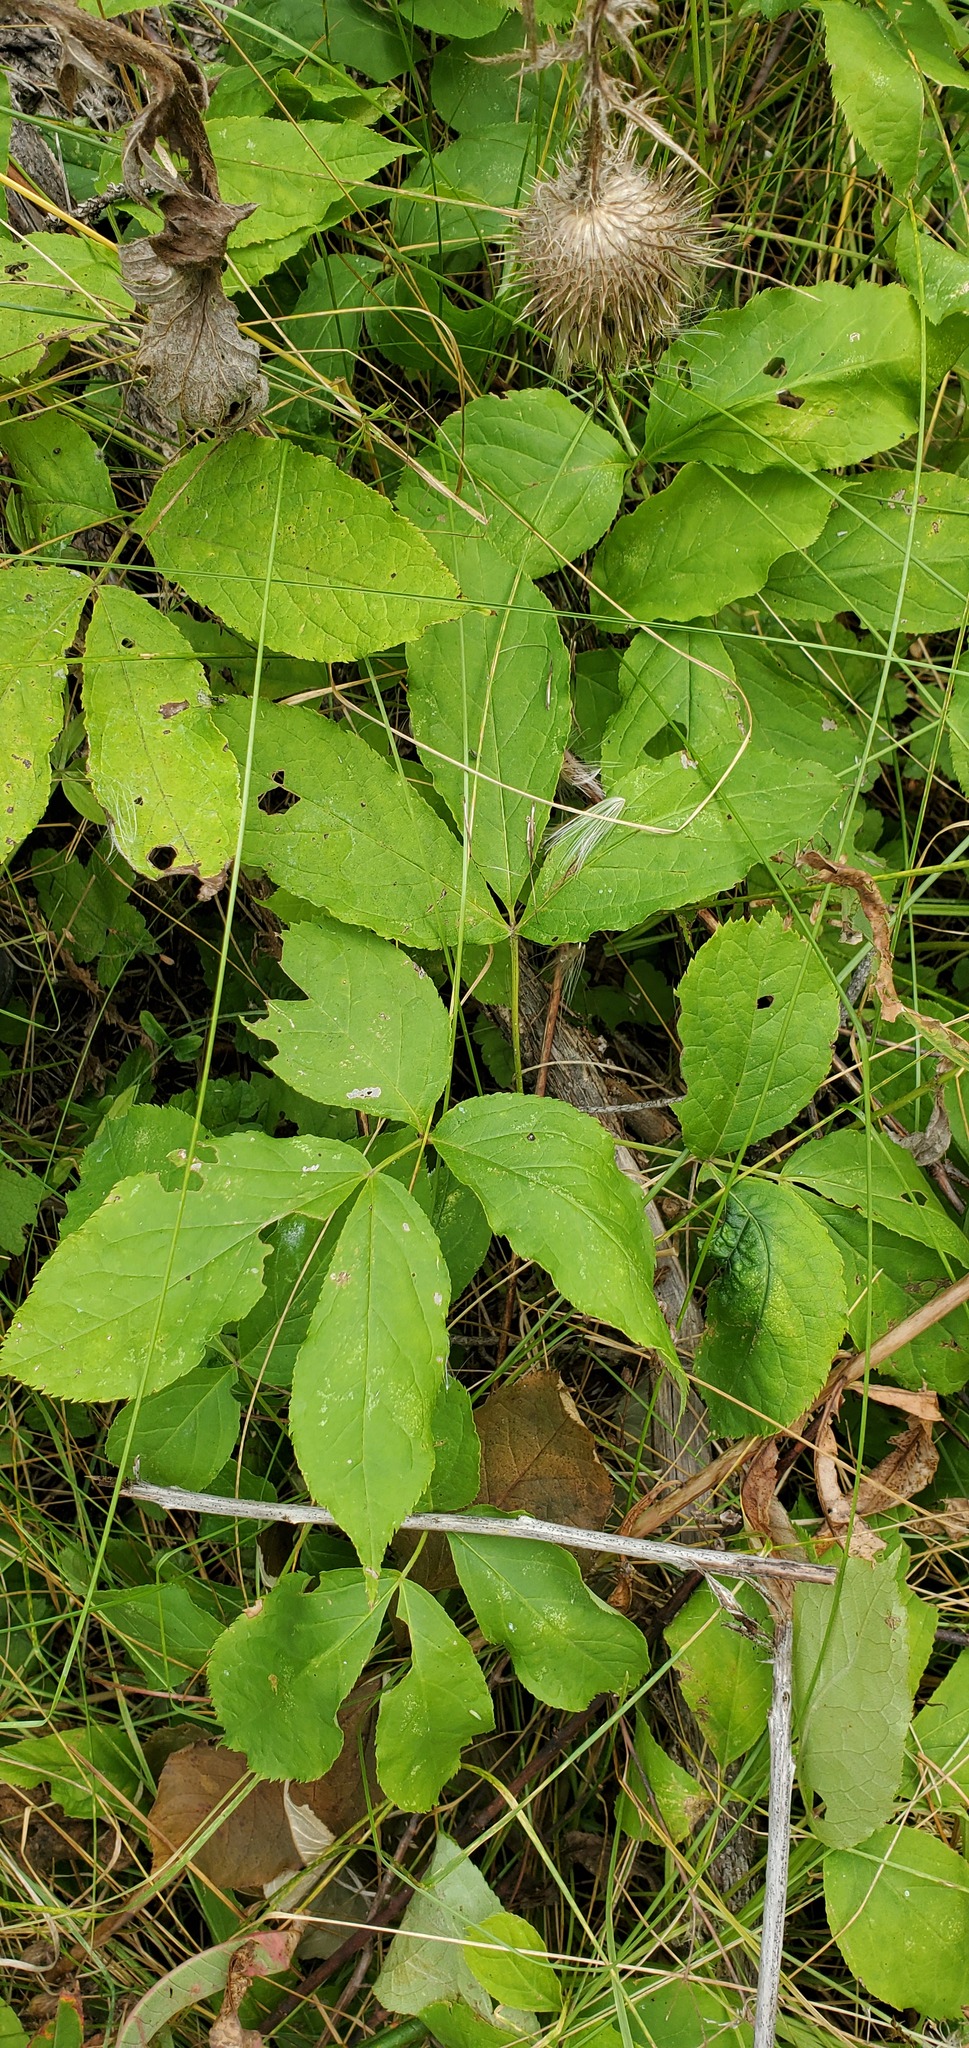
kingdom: Plantae
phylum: Tracheophyta
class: Magnoliopsida
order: Apiales
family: Araliaceae
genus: Aralia
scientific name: Aralia nudicaulis
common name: Wild sarsaparilla
